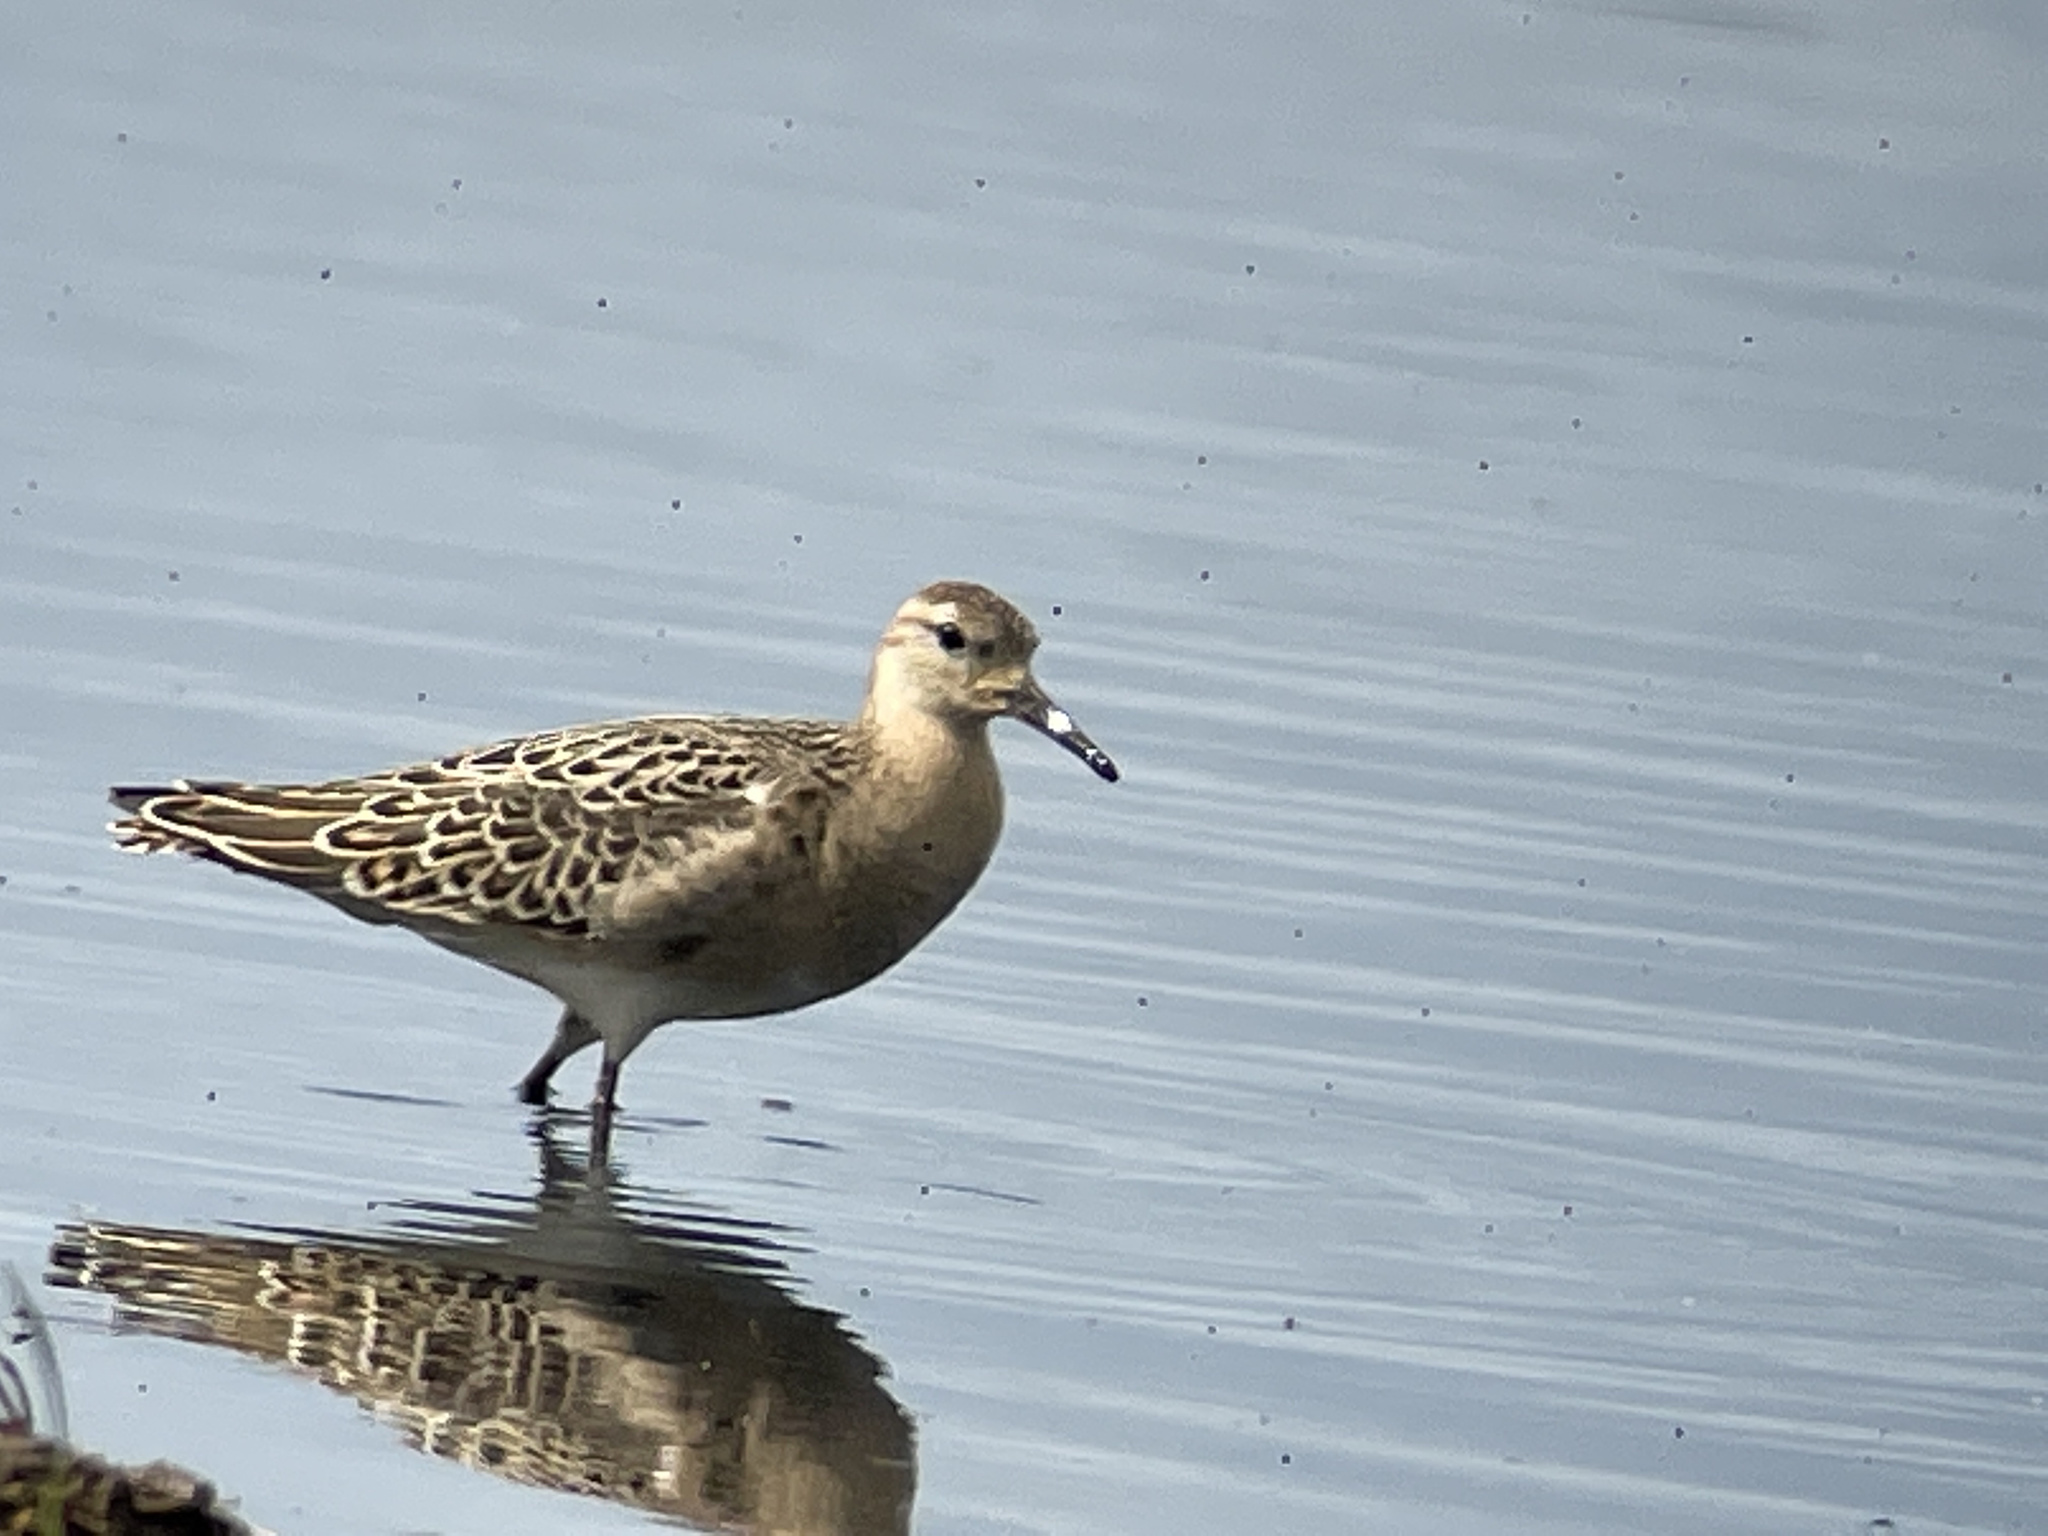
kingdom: Animalia
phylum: Chordata
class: Aves
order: Charadriiformes
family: Scolopacidae
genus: Calidris
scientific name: Calidris pugnax
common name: Ruff
